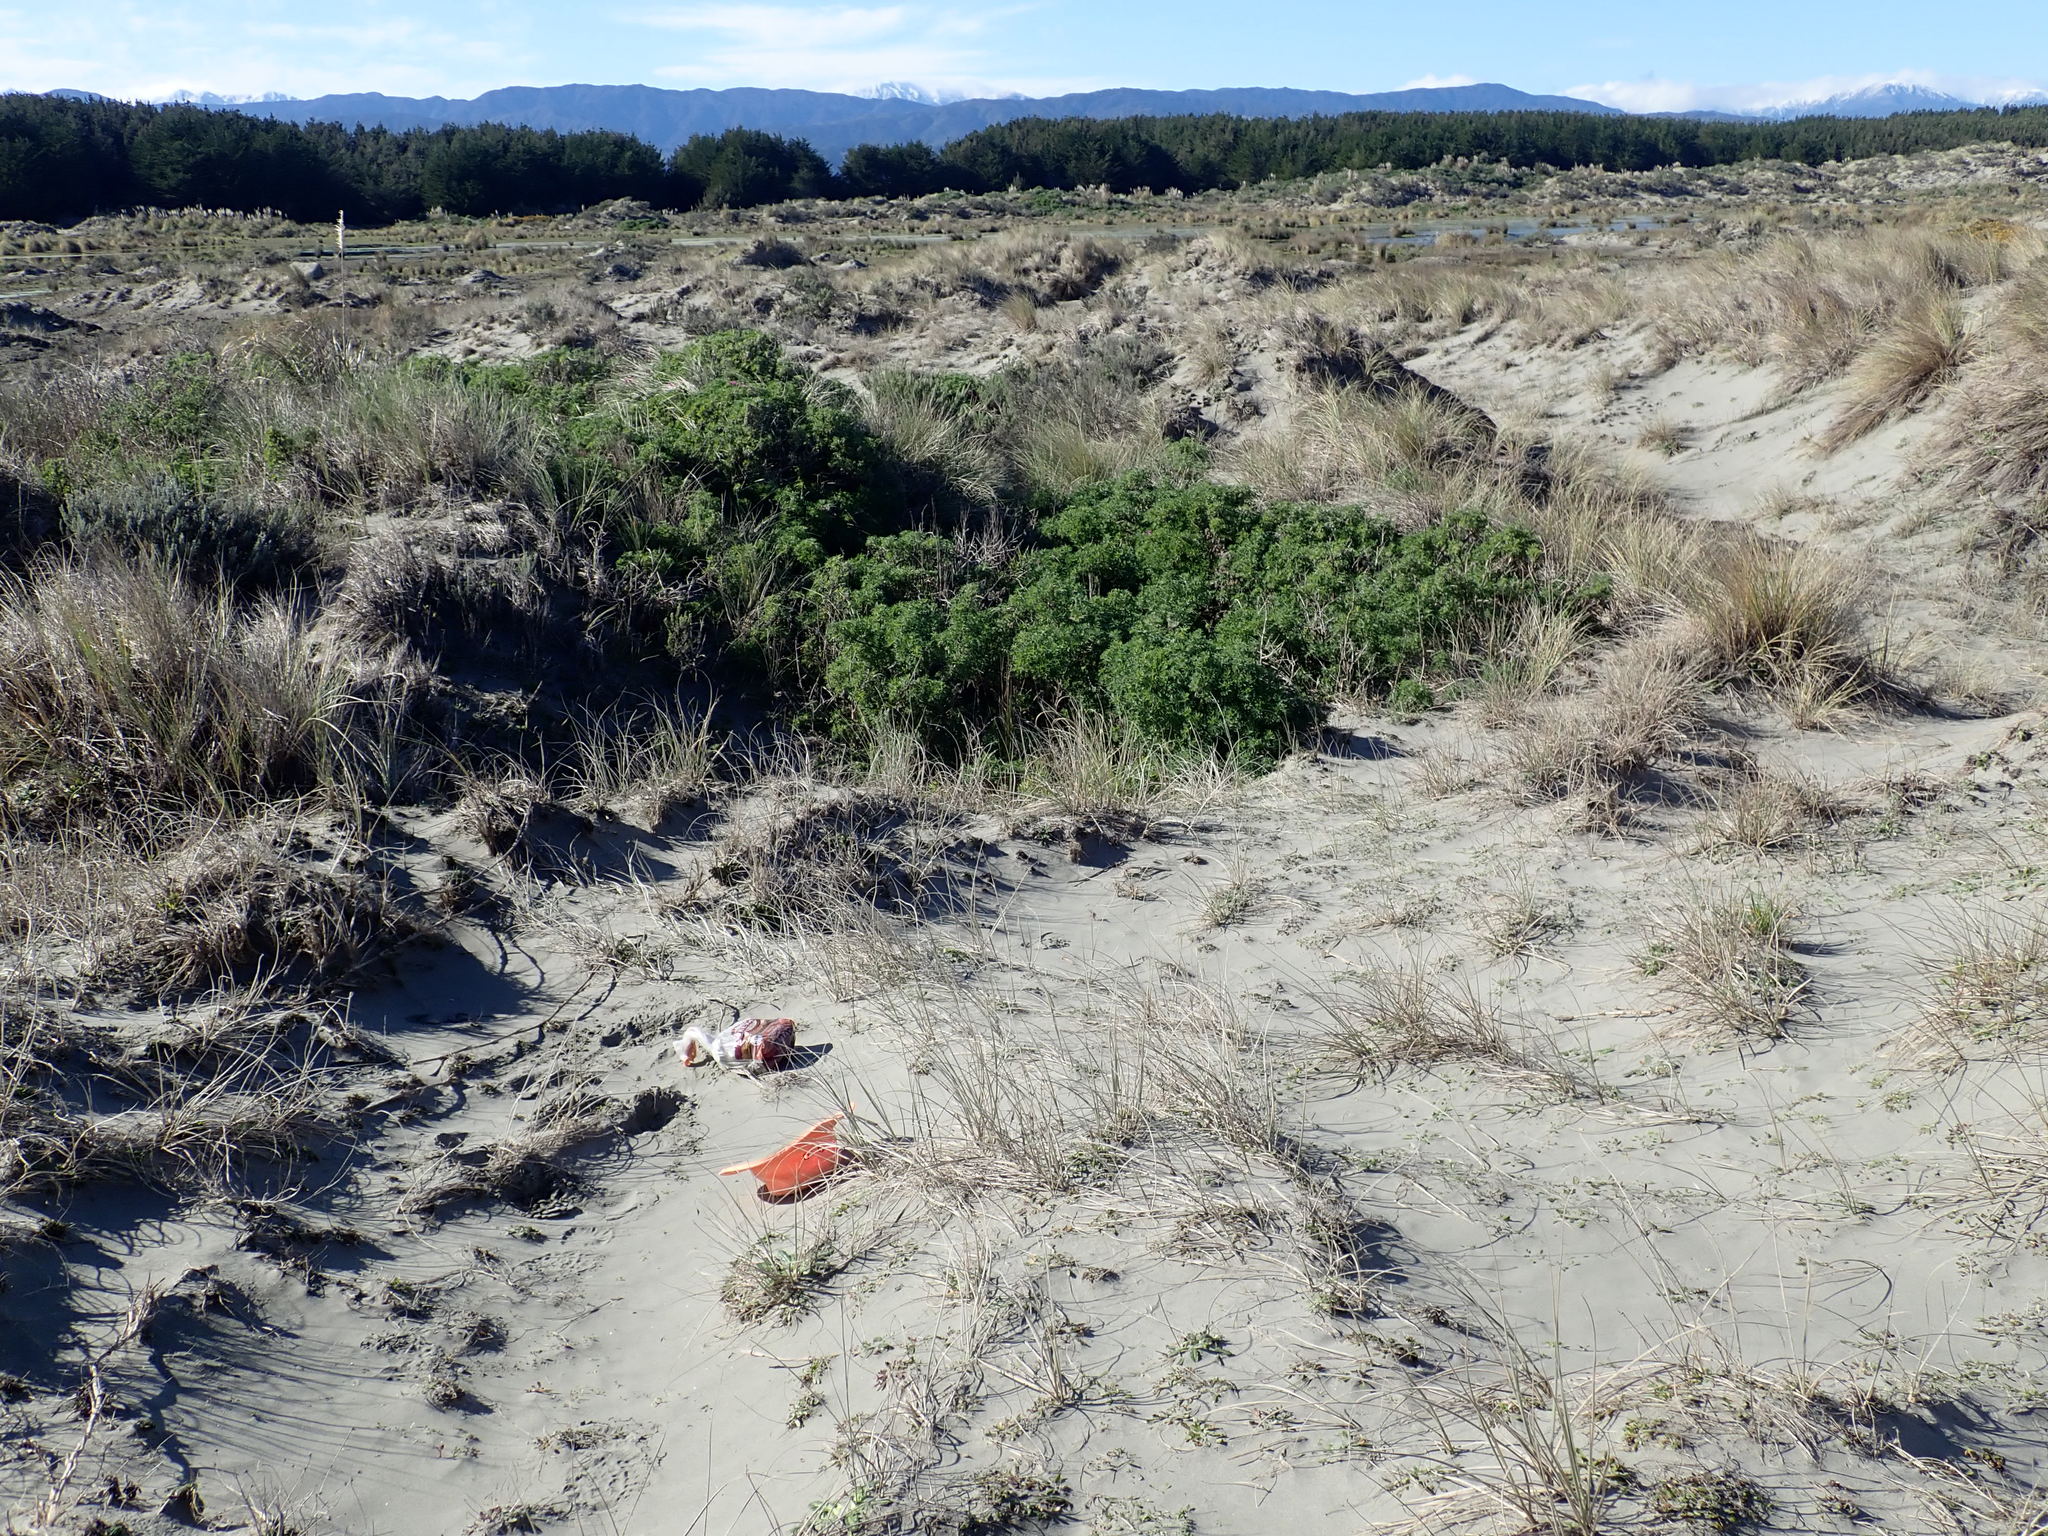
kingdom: Animalia
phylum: Arthropoda
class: Arachnida
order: Araneae
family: Lycosidae
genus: Anoteropsis
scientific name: Anoteropsis litoralis
